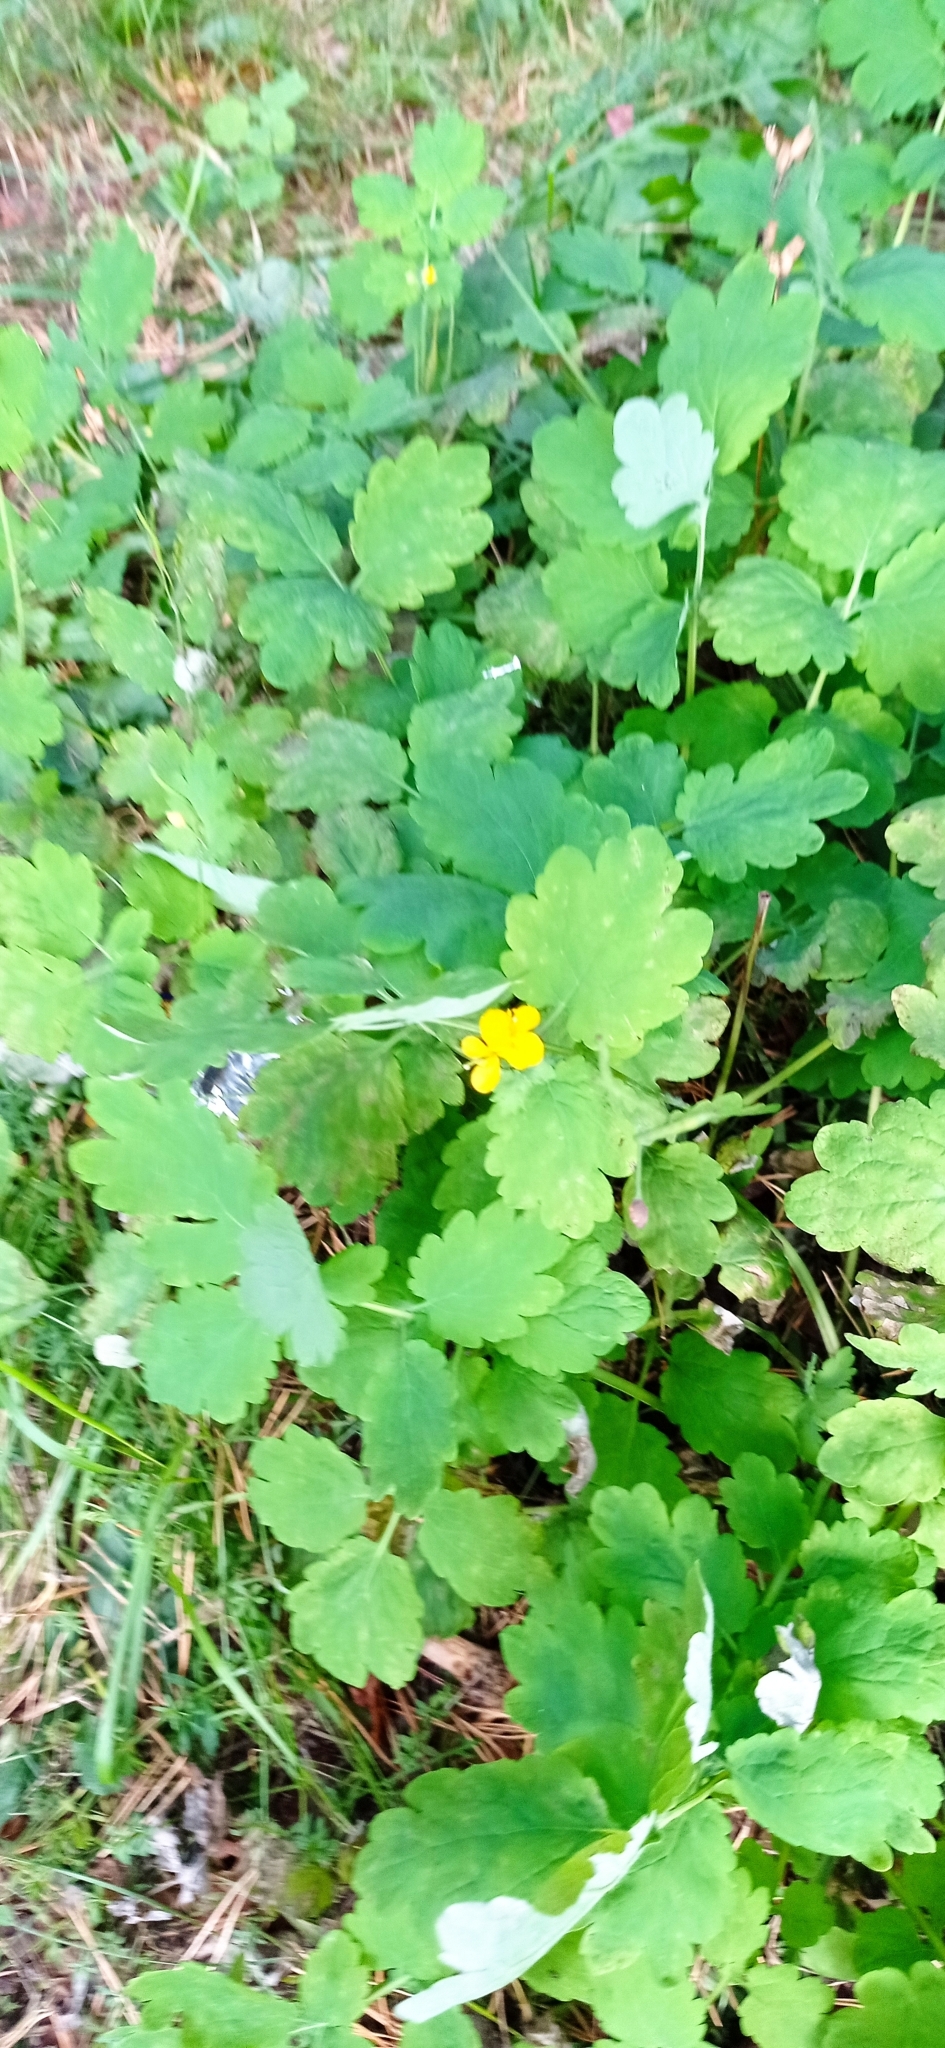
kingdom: Plantae
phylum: Tracheophyta
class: Magnoliopsida
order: Ranunculales
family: Papaveraceae
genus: Chelidonium
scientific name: Chelidonium majus
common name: Greater celandine
